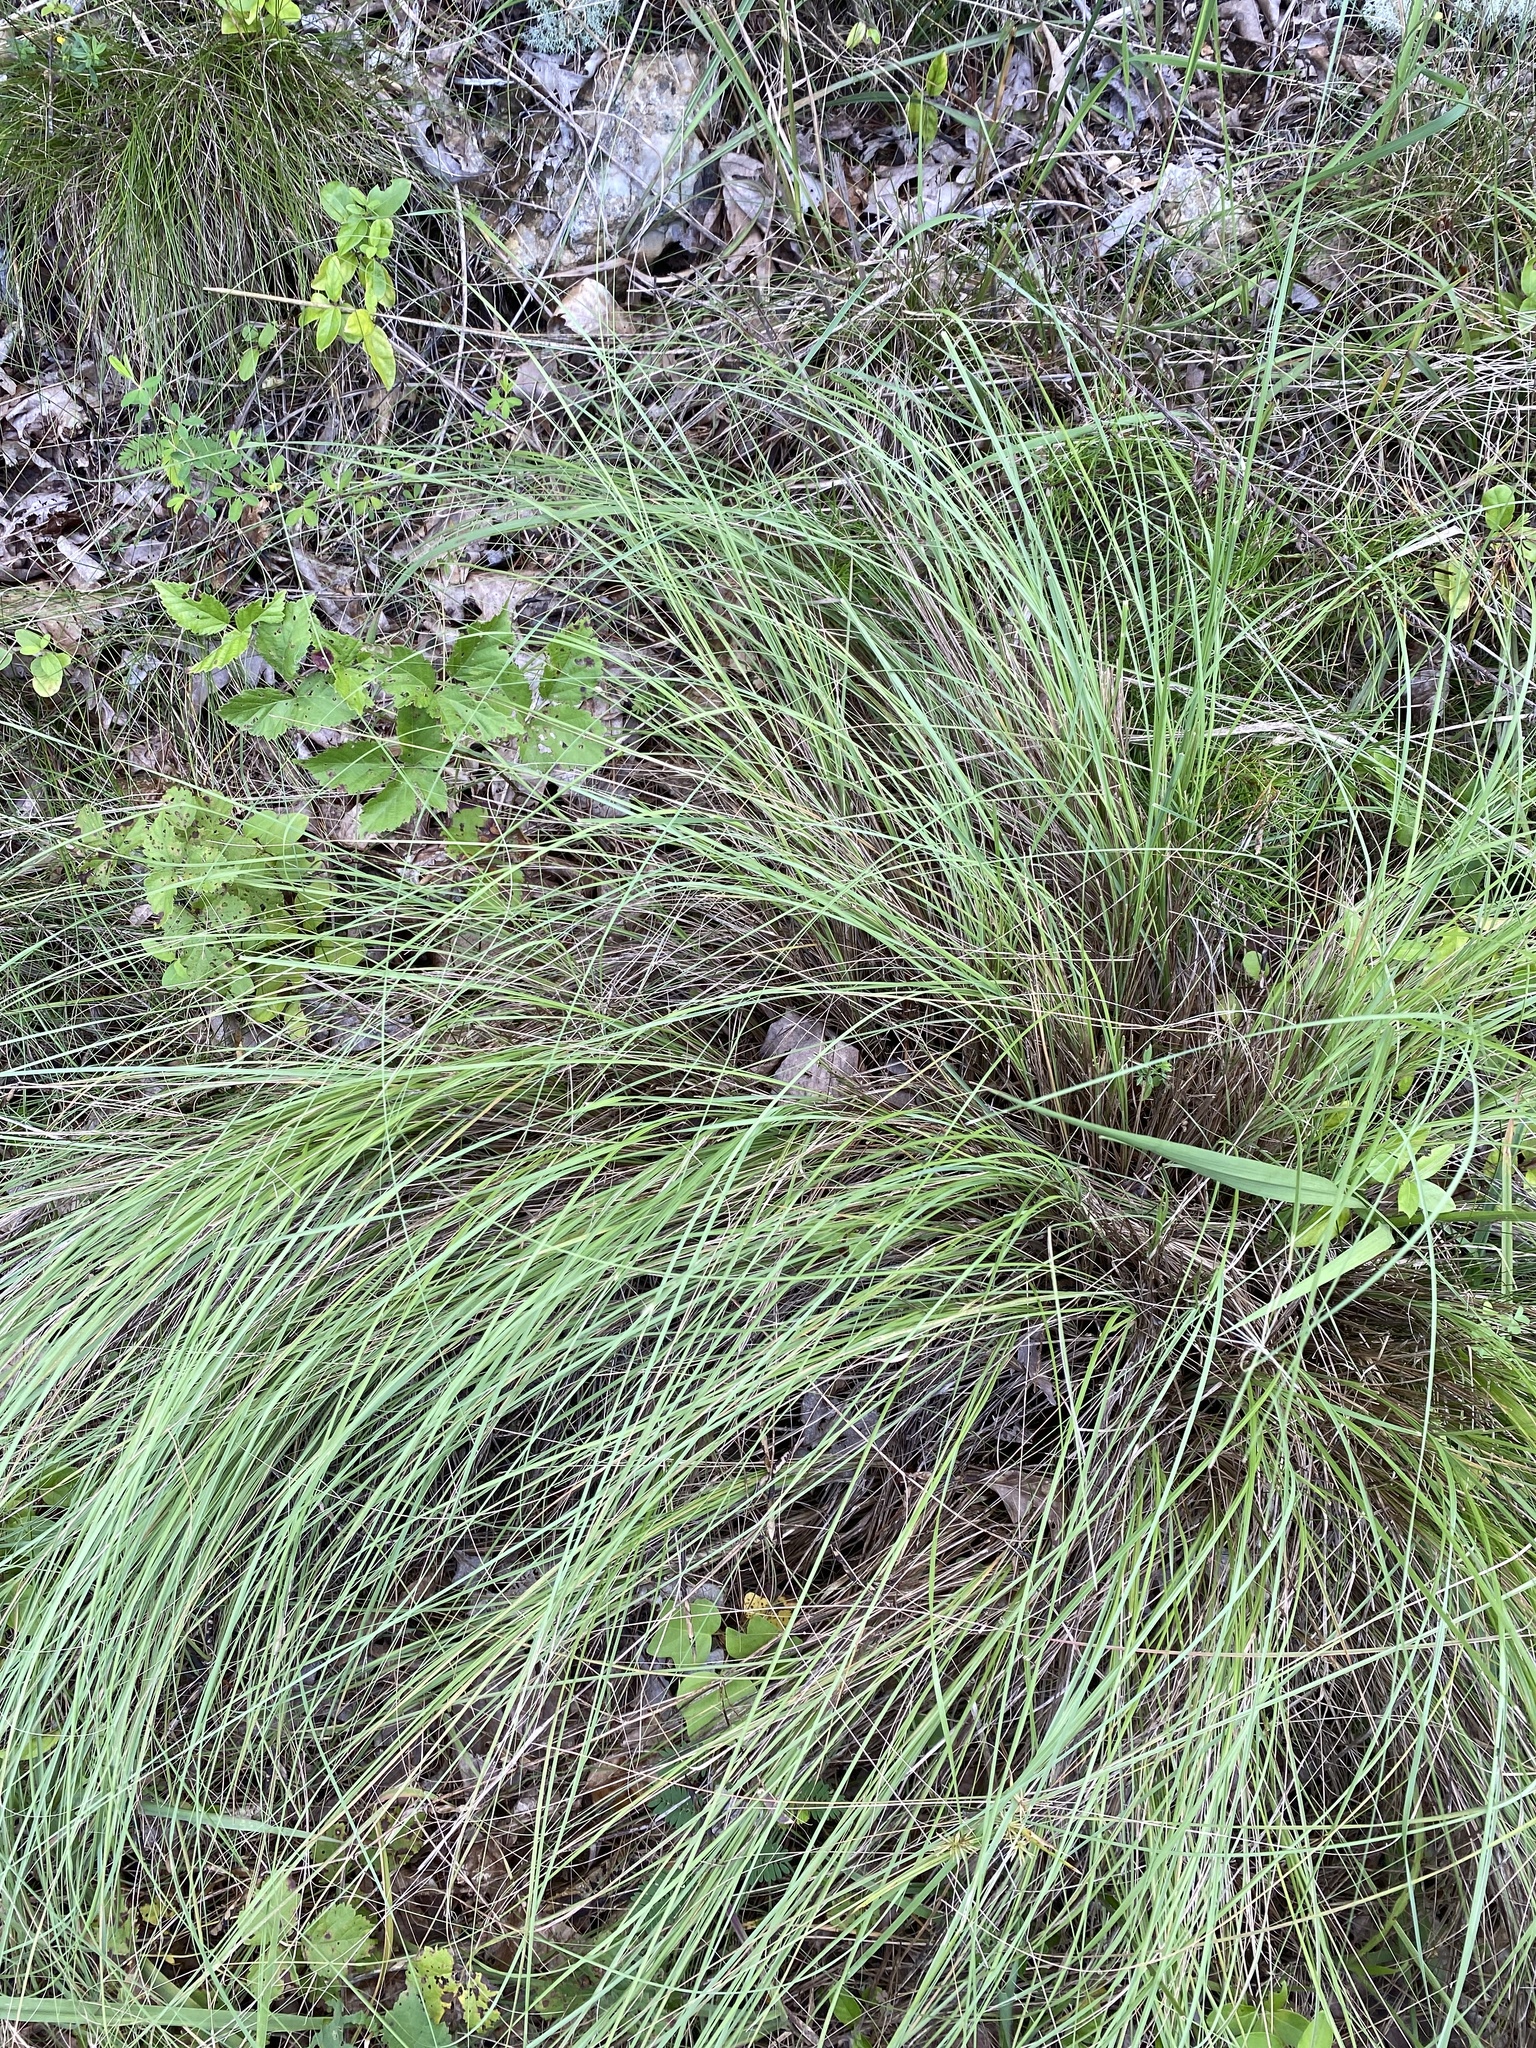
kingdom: Plantae
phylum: Tracheophyta
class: Liliopsida
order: Poales
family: Poaceae
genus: Eragrostis
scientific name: Eragrostis curvula
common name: African love-grass
